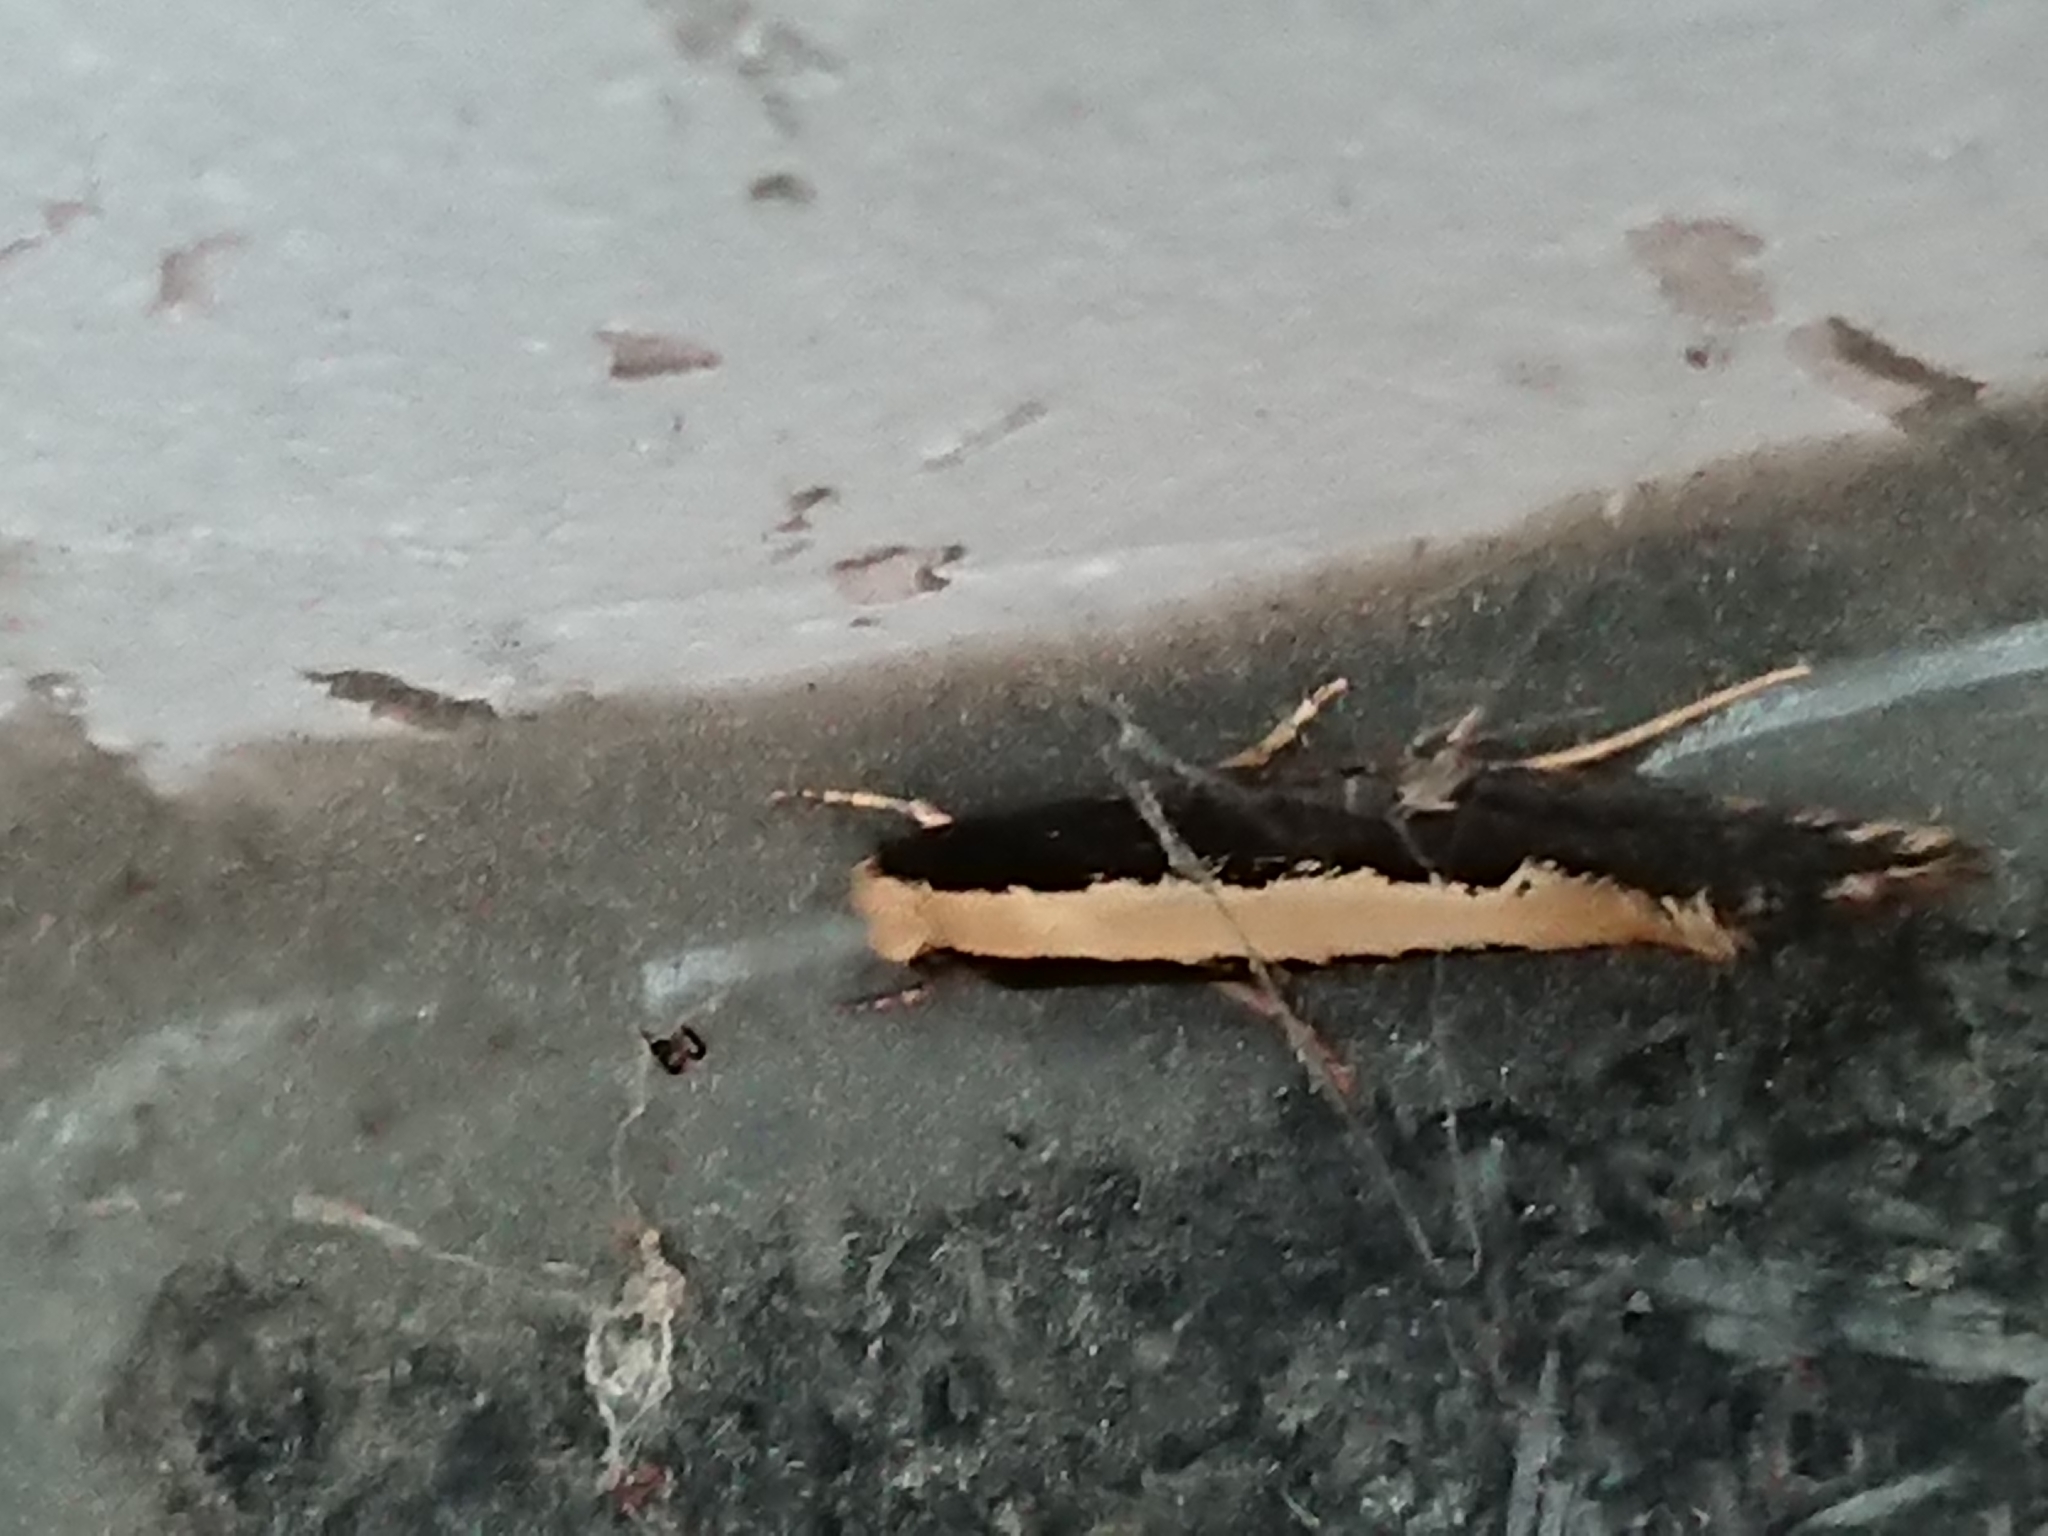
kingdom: Animalia
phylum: Arthropoda
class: Insecta
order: Lepidoptera
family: Tineidae
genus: Monopis
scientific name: Monopis ethelella
